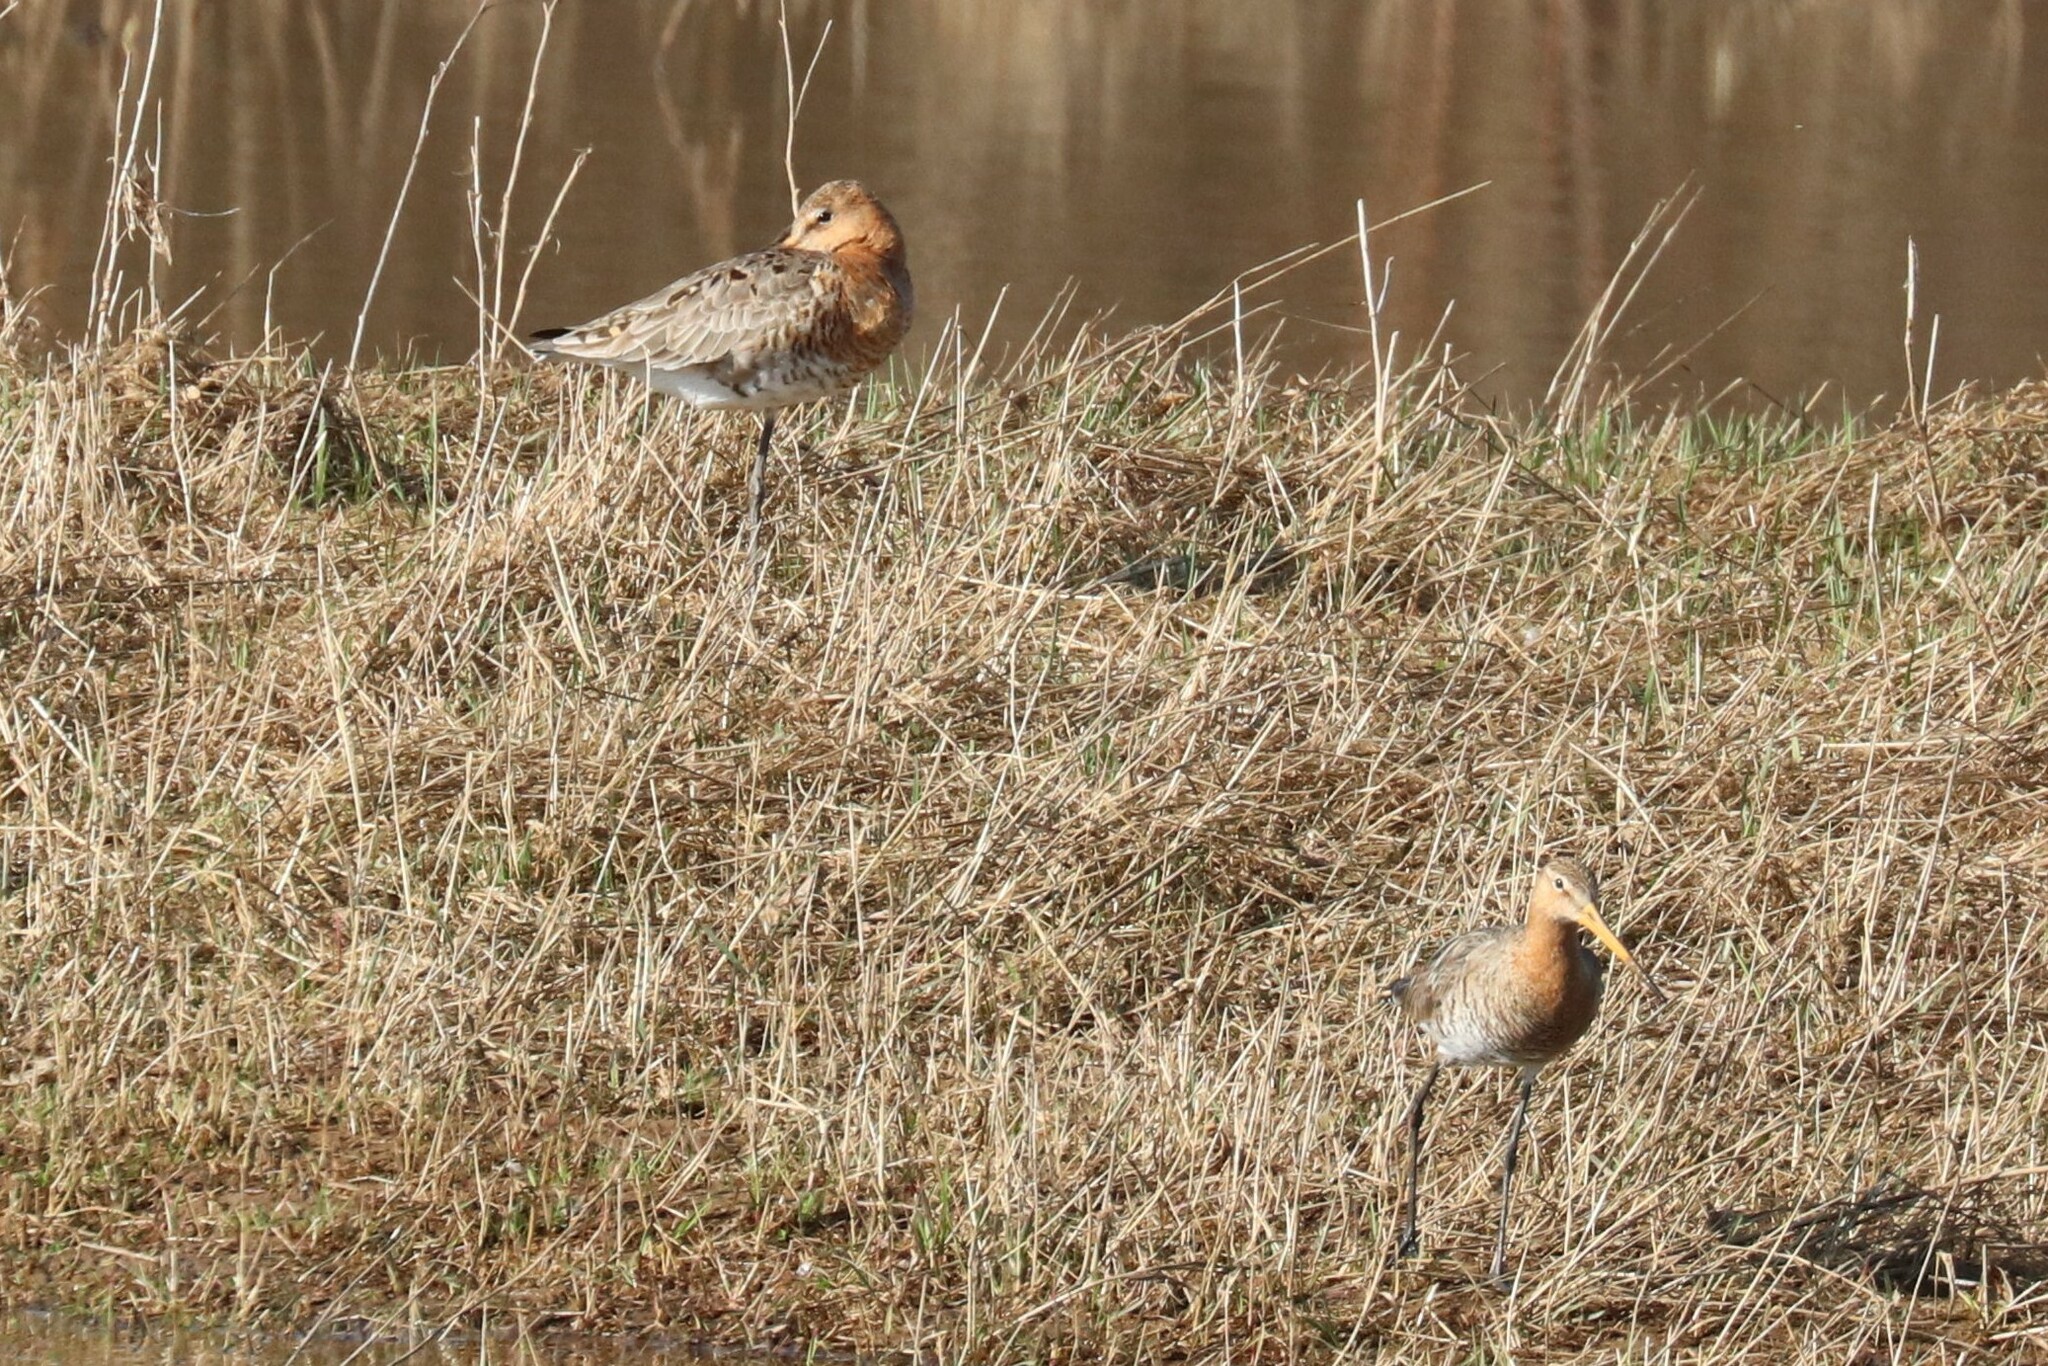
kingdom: Animalia
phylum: Chordata
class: Aves
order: Charadriiformes
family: Scolopacidae
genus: Limosa
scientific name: Limosa limosa
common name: Black-tailed godwit
